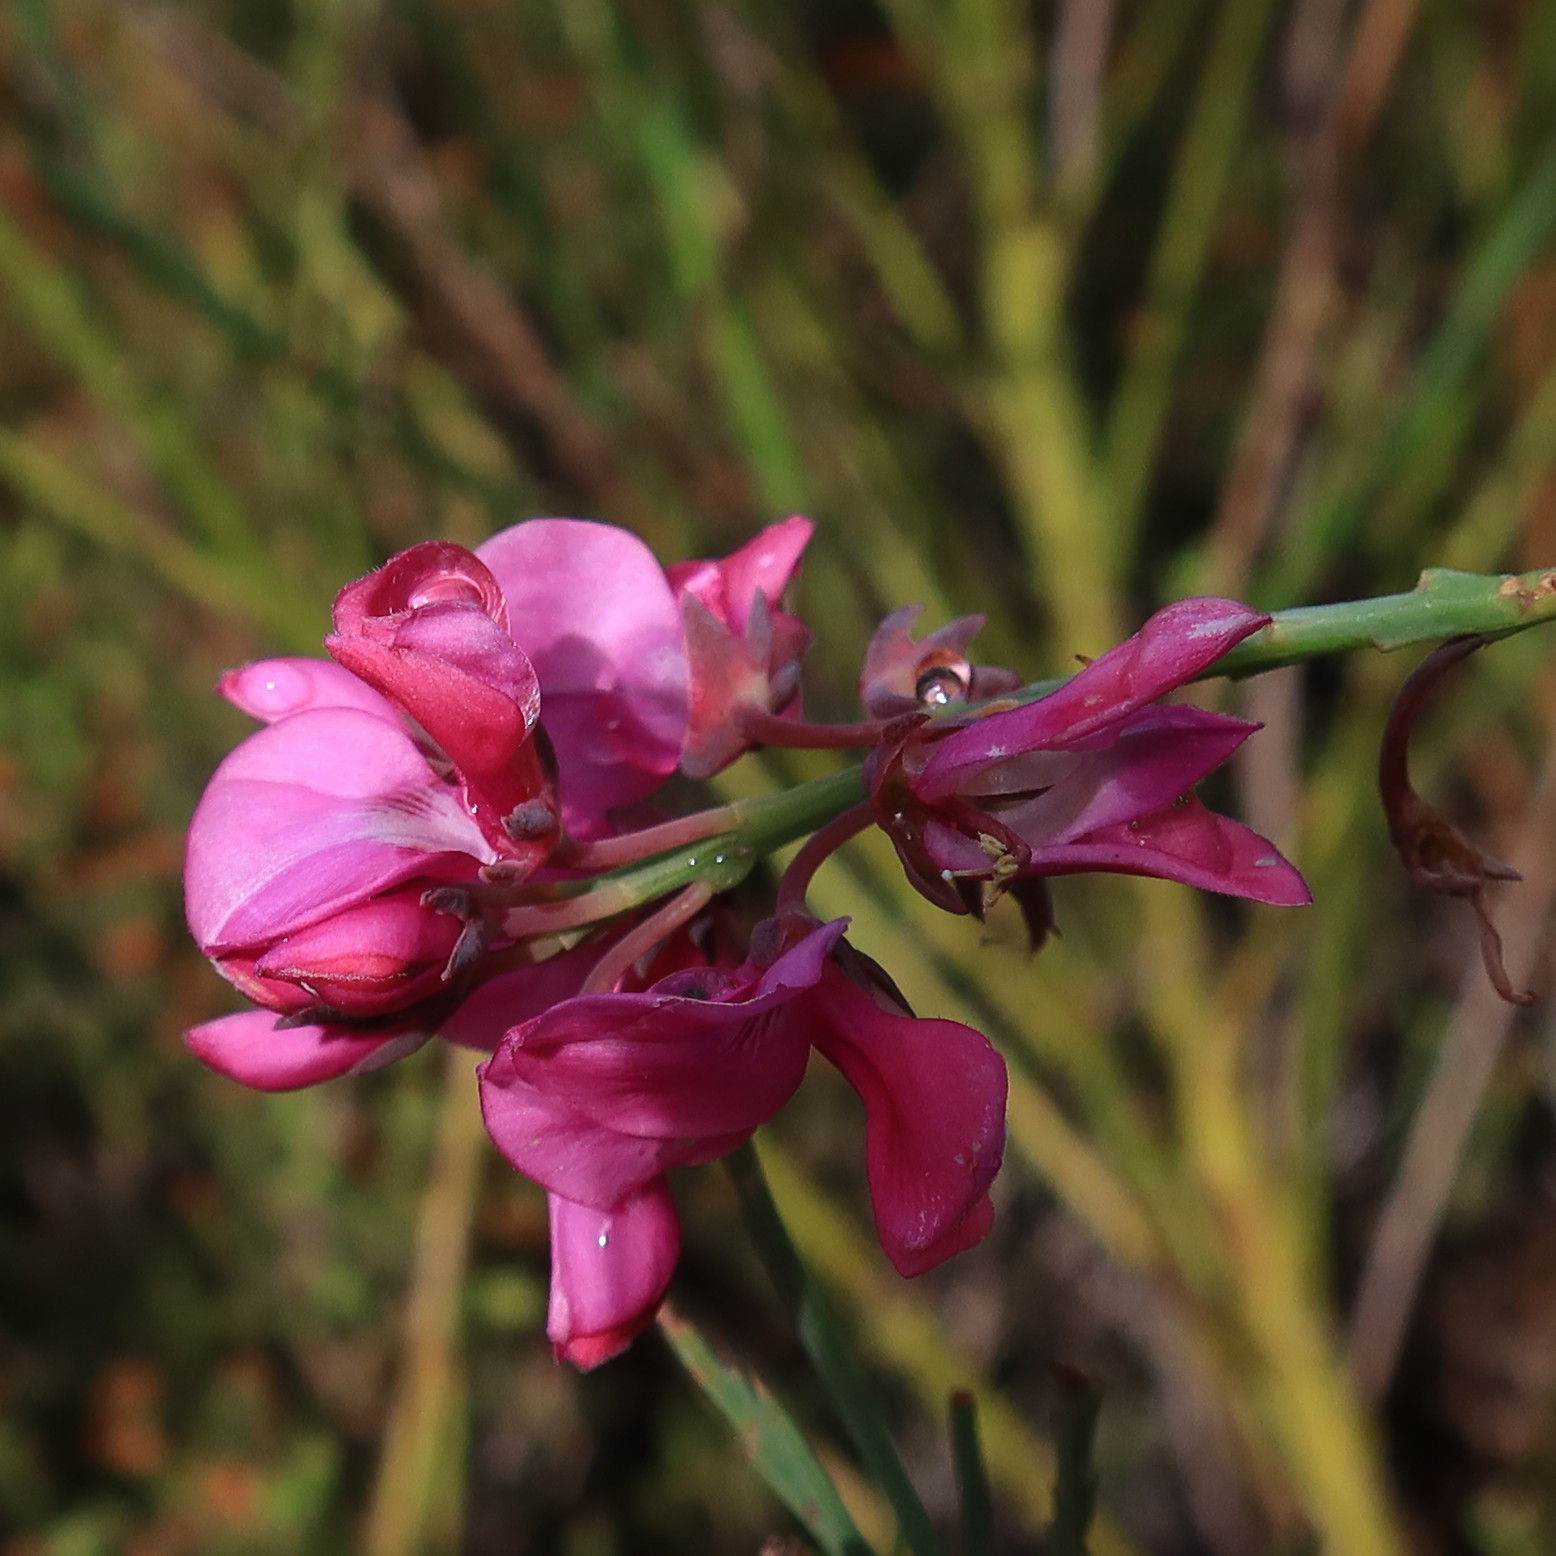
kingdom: Plantae
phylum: Tracheophyta
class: Magnoliopsida
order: Fabales
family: Fabaceae
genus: Indigofera
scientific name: Indigofera filifolia
